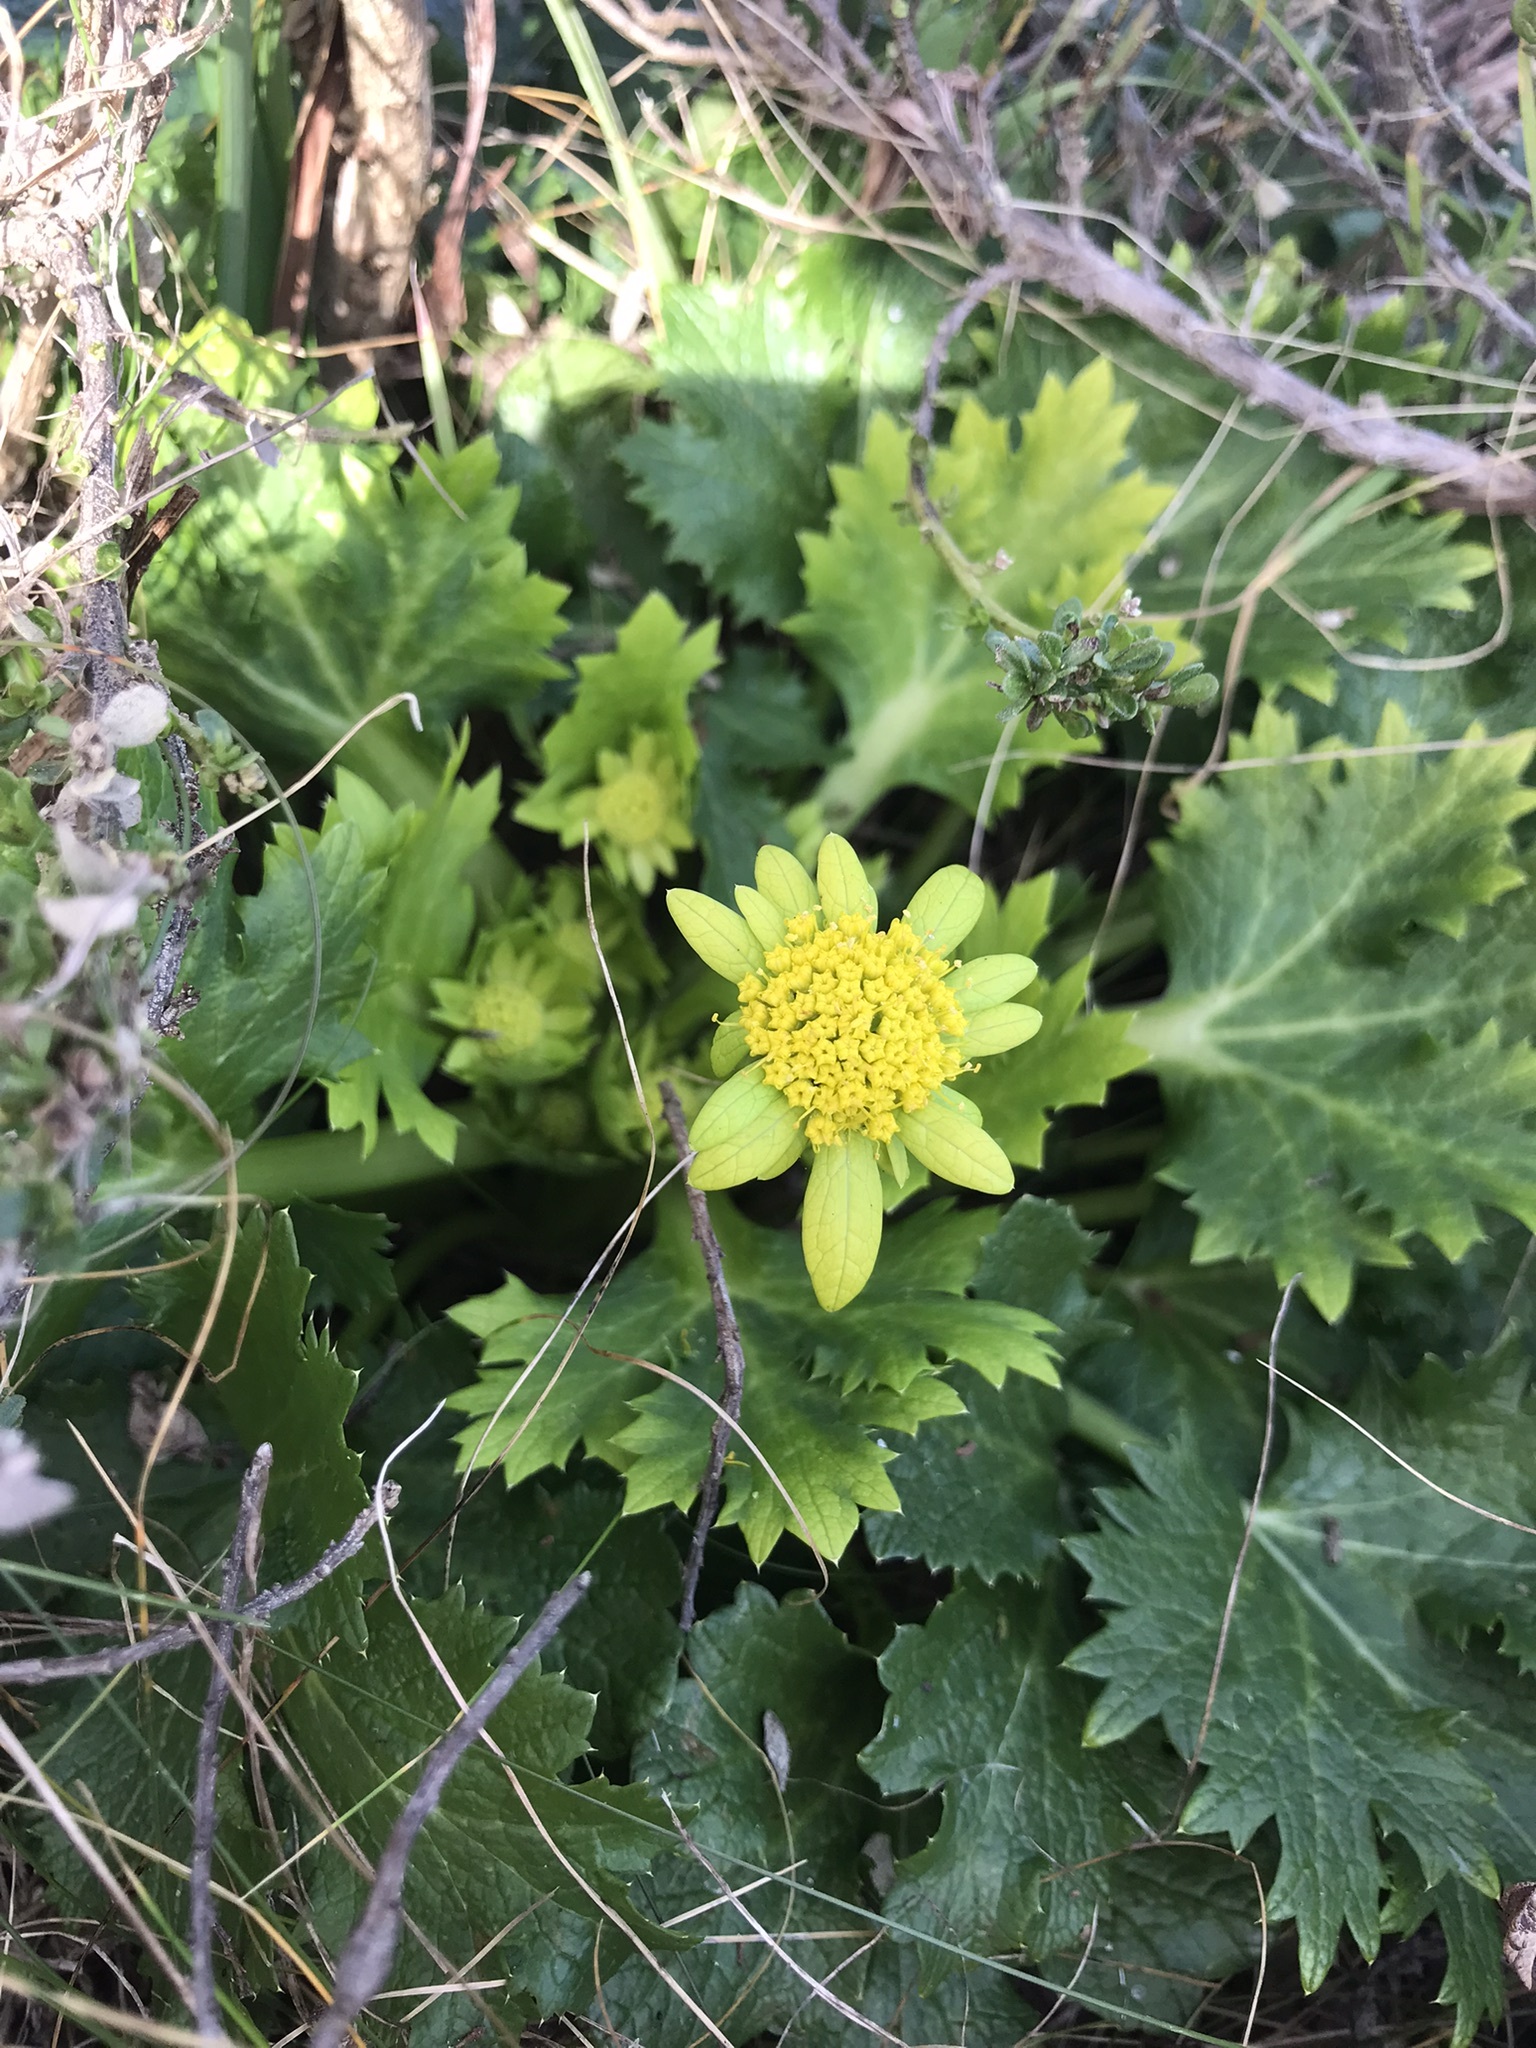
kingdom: Plantae
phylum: Tracheophyta
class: Magnoliopsida
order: Apiales
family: Apiaceae
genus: Sanicula
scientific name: Sanicula arctopoides
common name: Footsteps-of-spring
